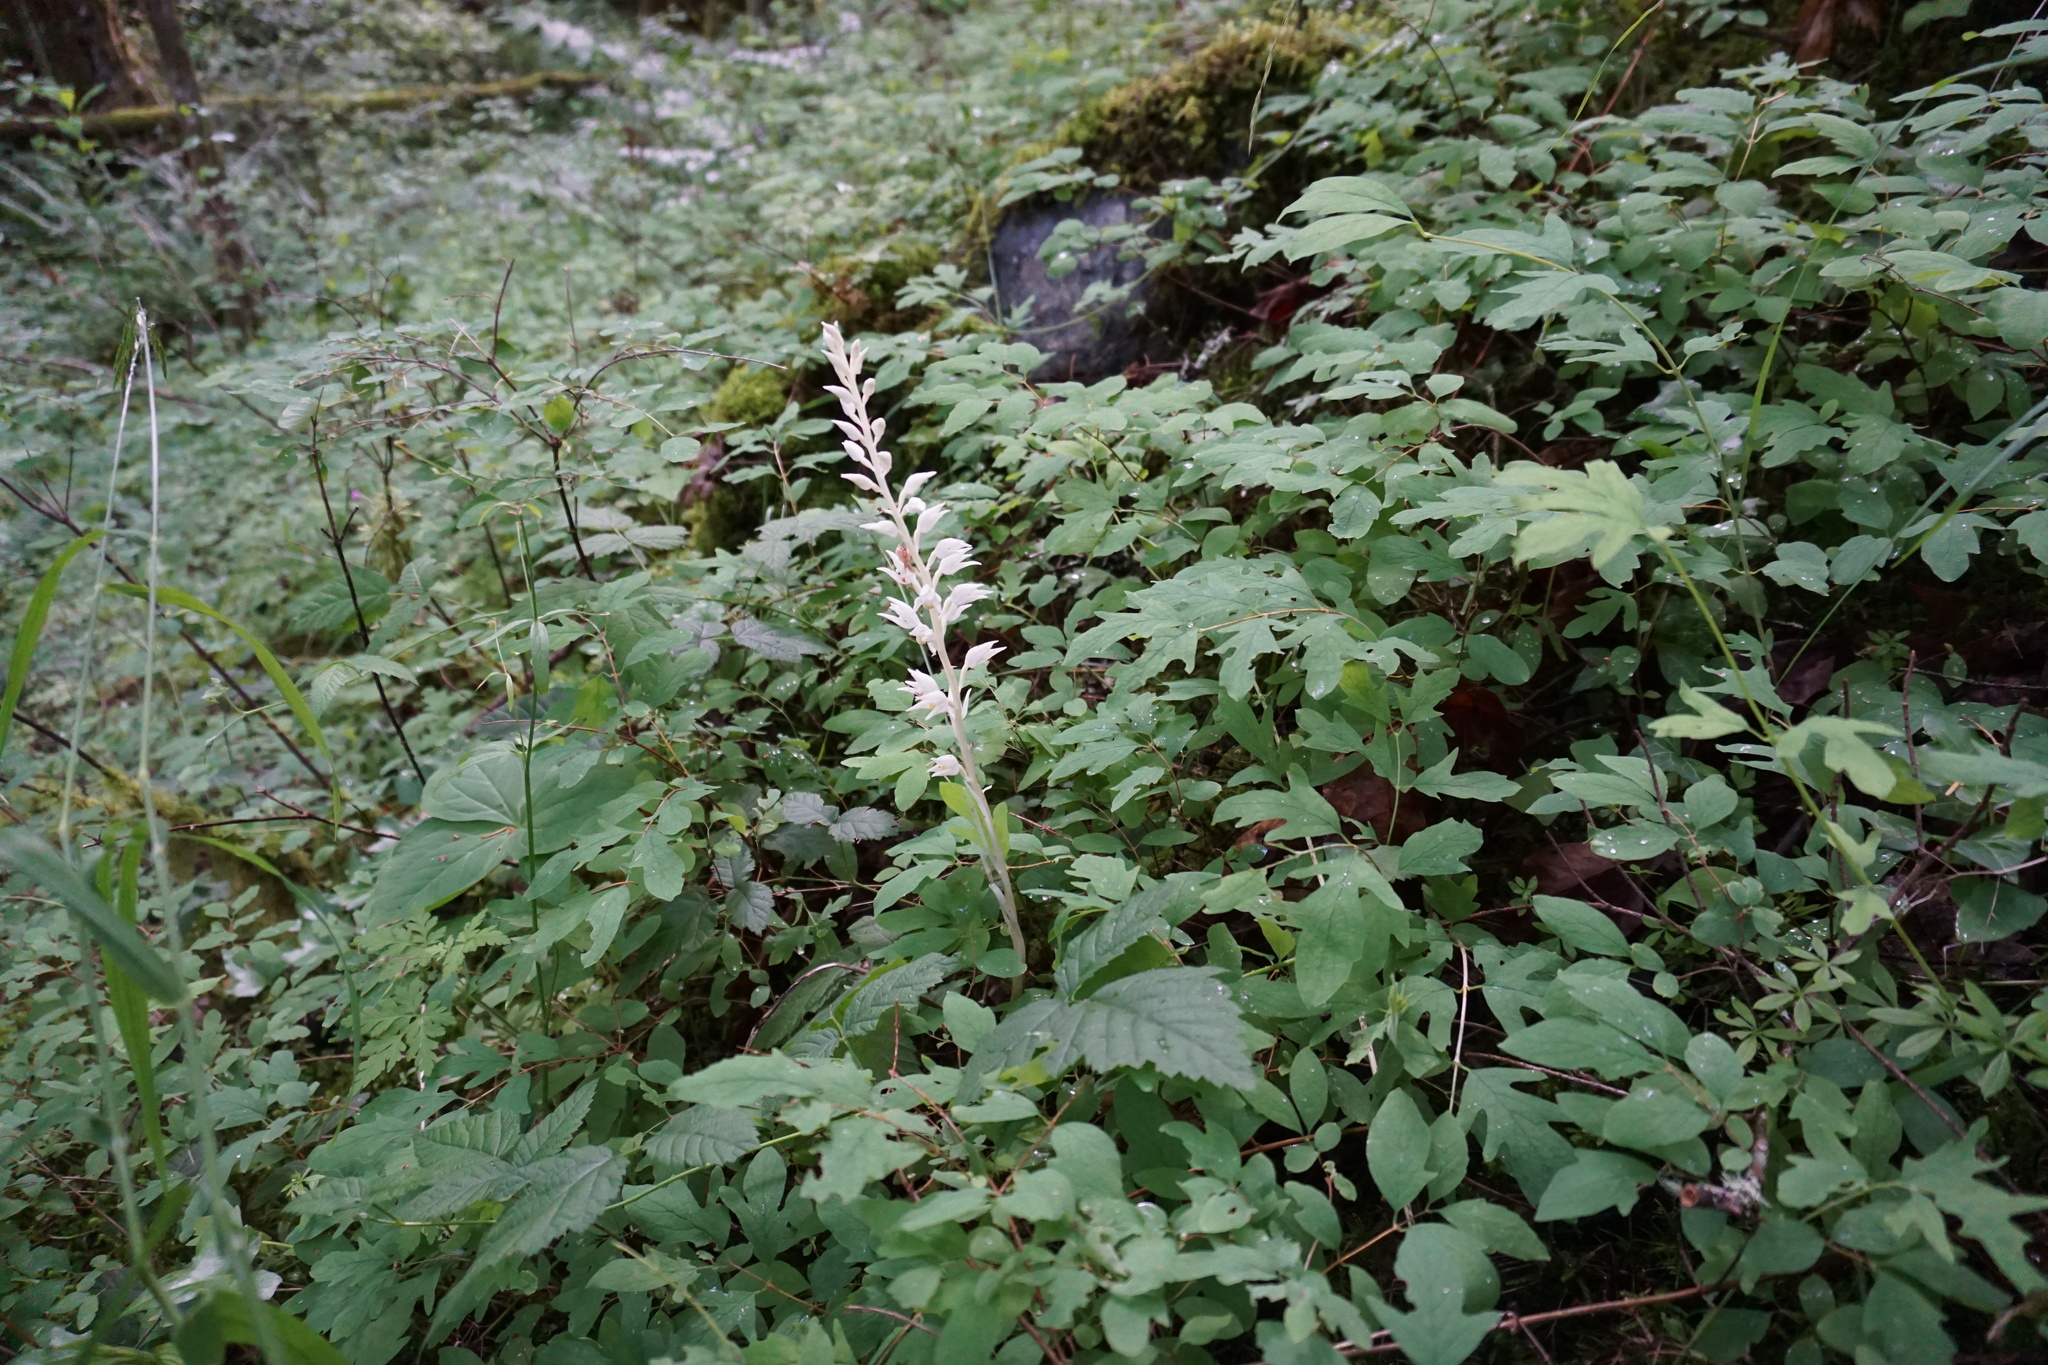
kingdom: Plantae
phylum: Tracheophyta
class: Liliopsida
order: Asparagales
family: Orchidaceae
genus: Cephalanthera
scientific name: Cephalanthera austiniae
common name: Phantom orchid
